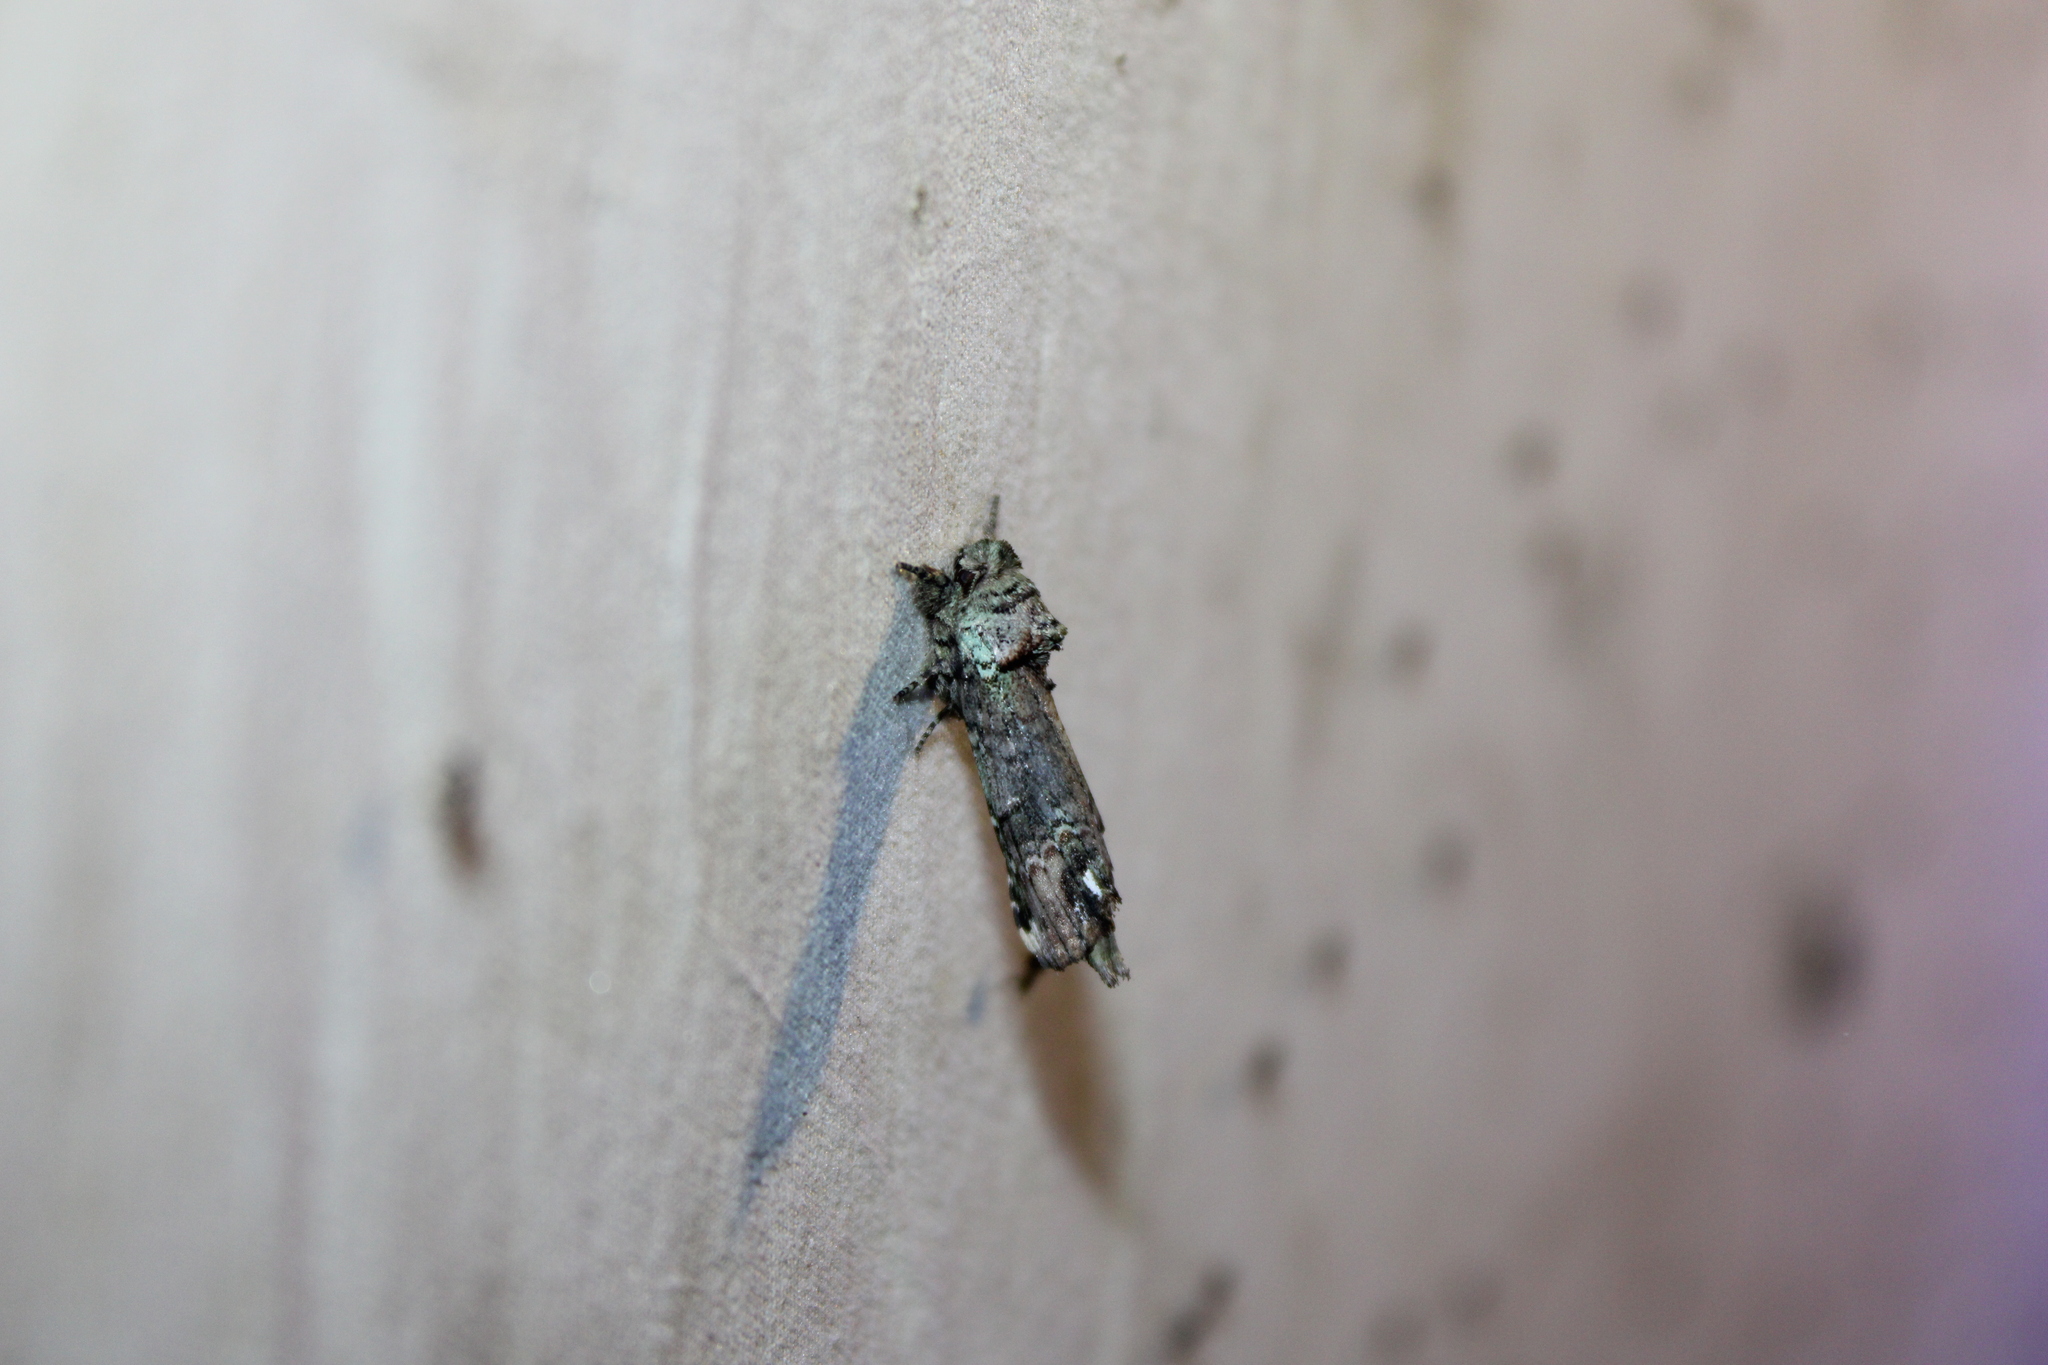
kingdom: Animalia
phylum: Arthropoda
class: Insecta
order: Lepidoptera
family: Notodontidae
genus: Schizura
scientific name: Schizura
